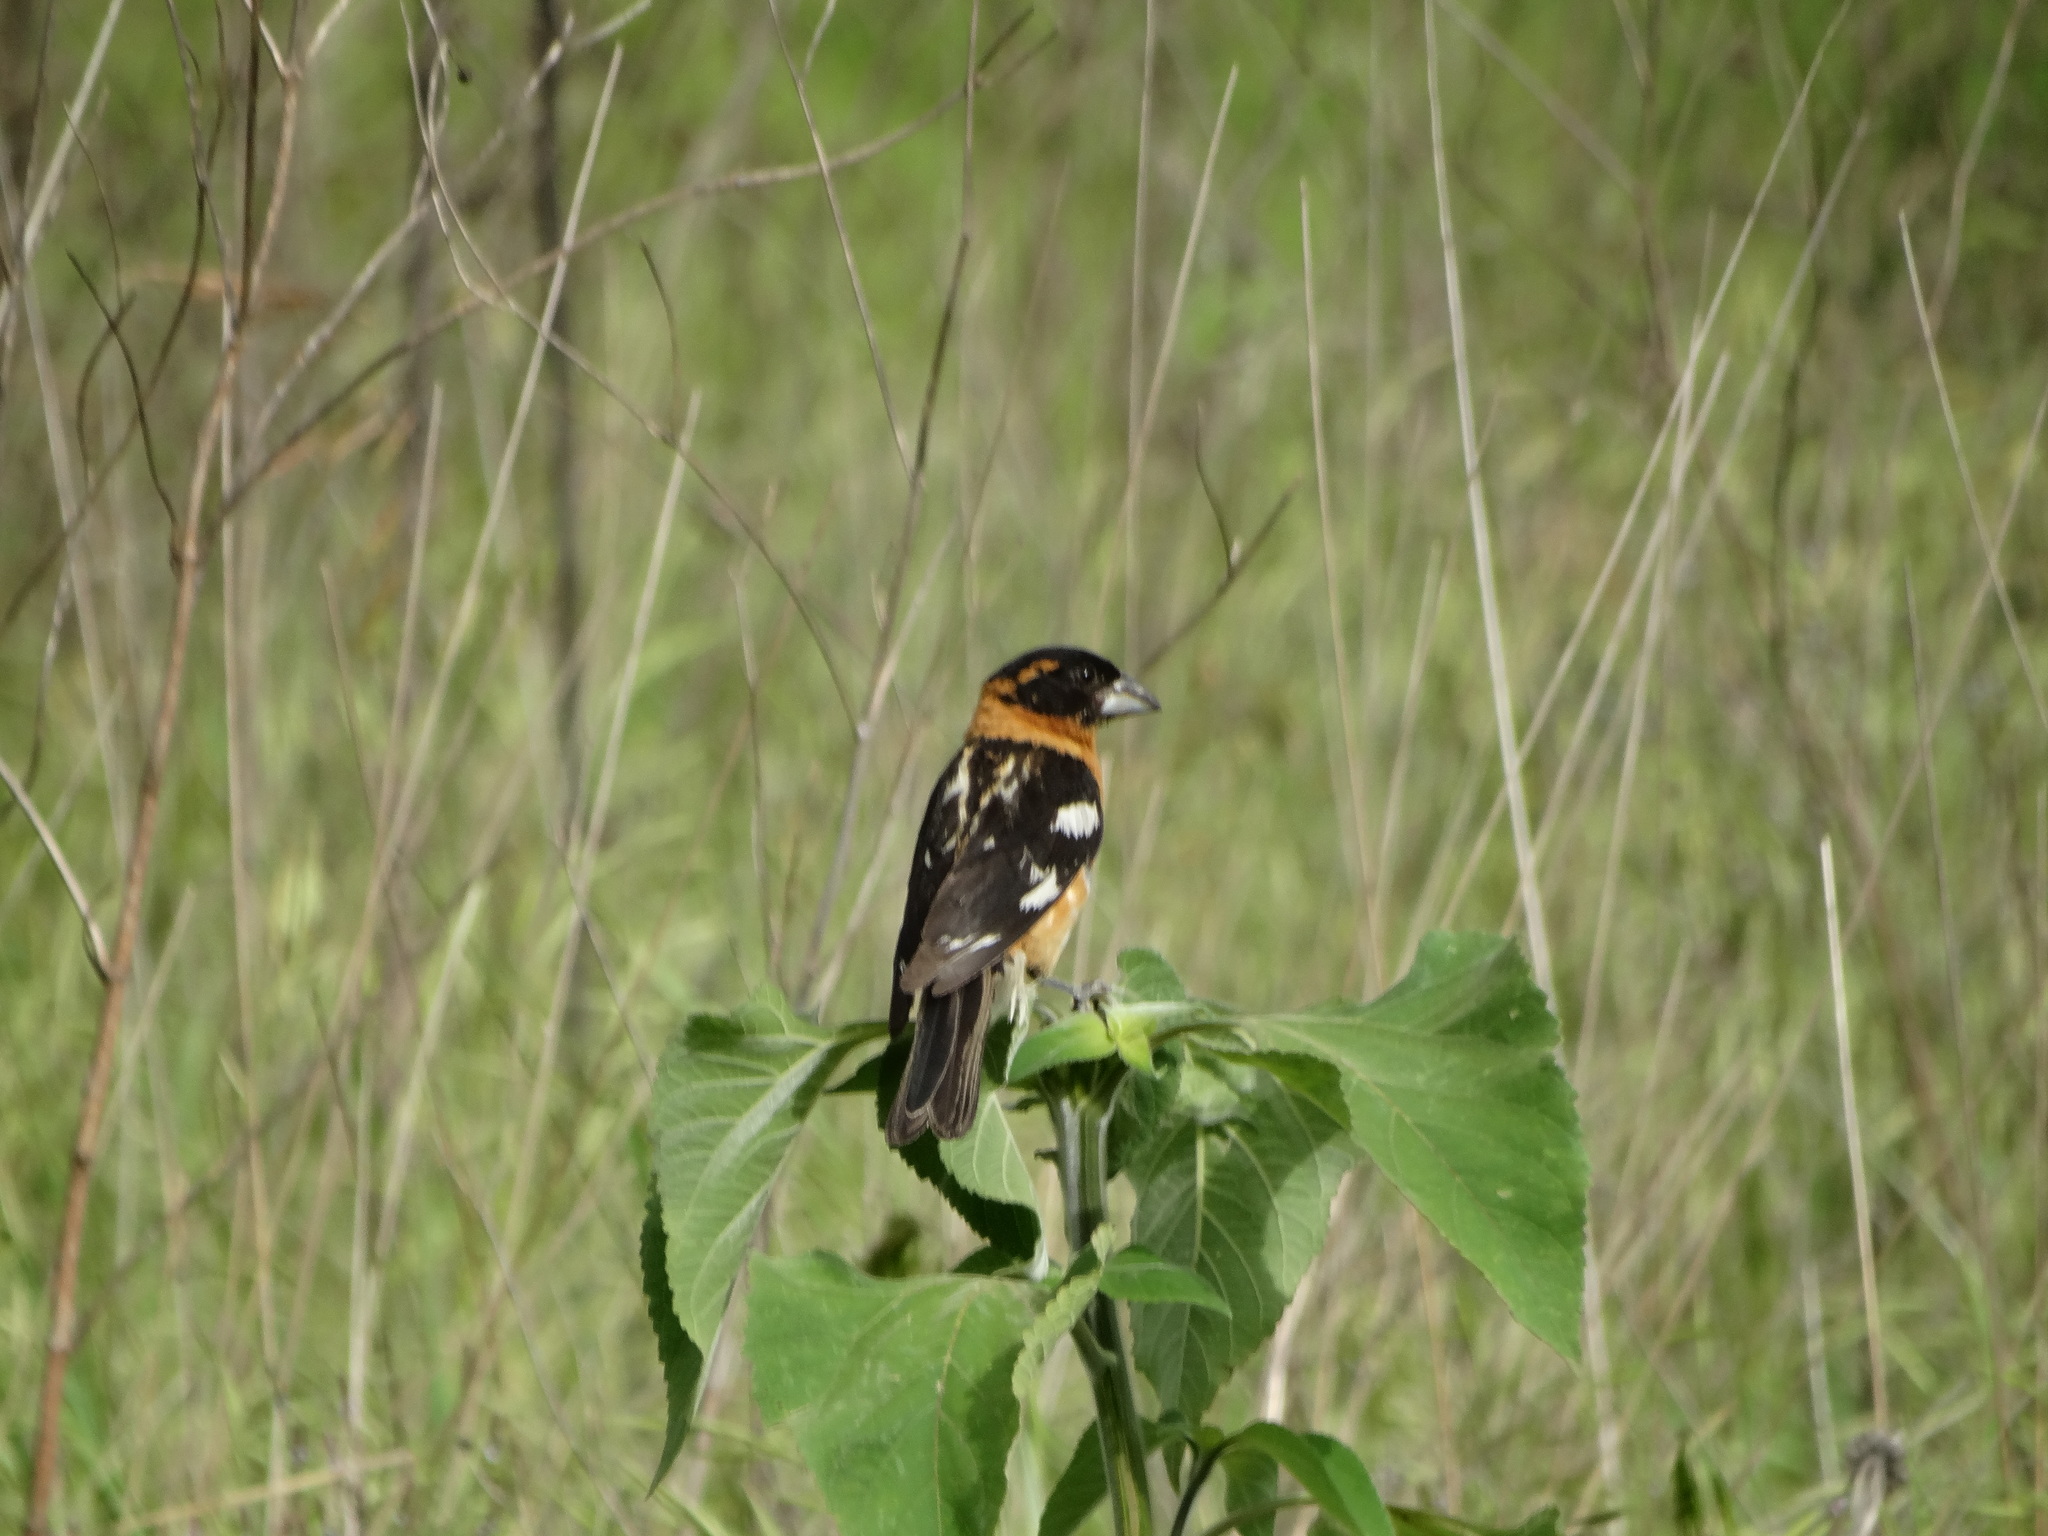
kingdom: Animalia
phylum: Chordata
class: Aves
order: Passeriformes
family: Cardinalidae
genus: Pheucticus
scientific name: Pheucticus melanocephalus
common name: Black-headed grosbeak
